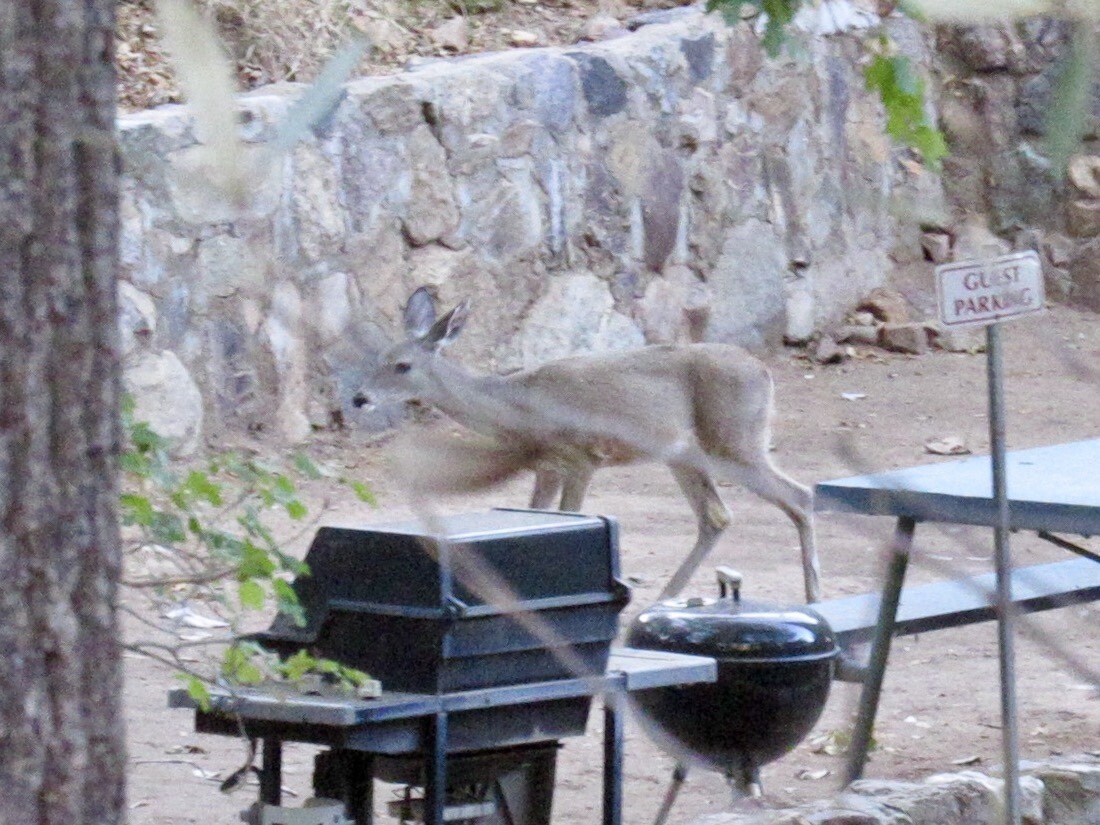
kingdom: Animalia
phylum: Chordata
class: Mammalia
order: Artiodactyla
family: Cervidae
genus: Odocoileus
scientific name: Odocoileus virginianus
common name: White-tailed deer
